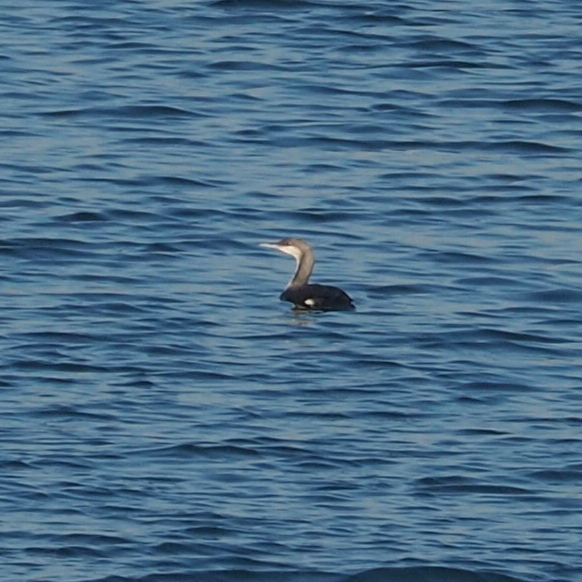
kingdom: Animalia
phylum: Chordata
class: Aves
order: Gaviiformes
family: Gaviidae
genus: Gavia
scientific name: Gavia arctica
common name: Black-throated loon
